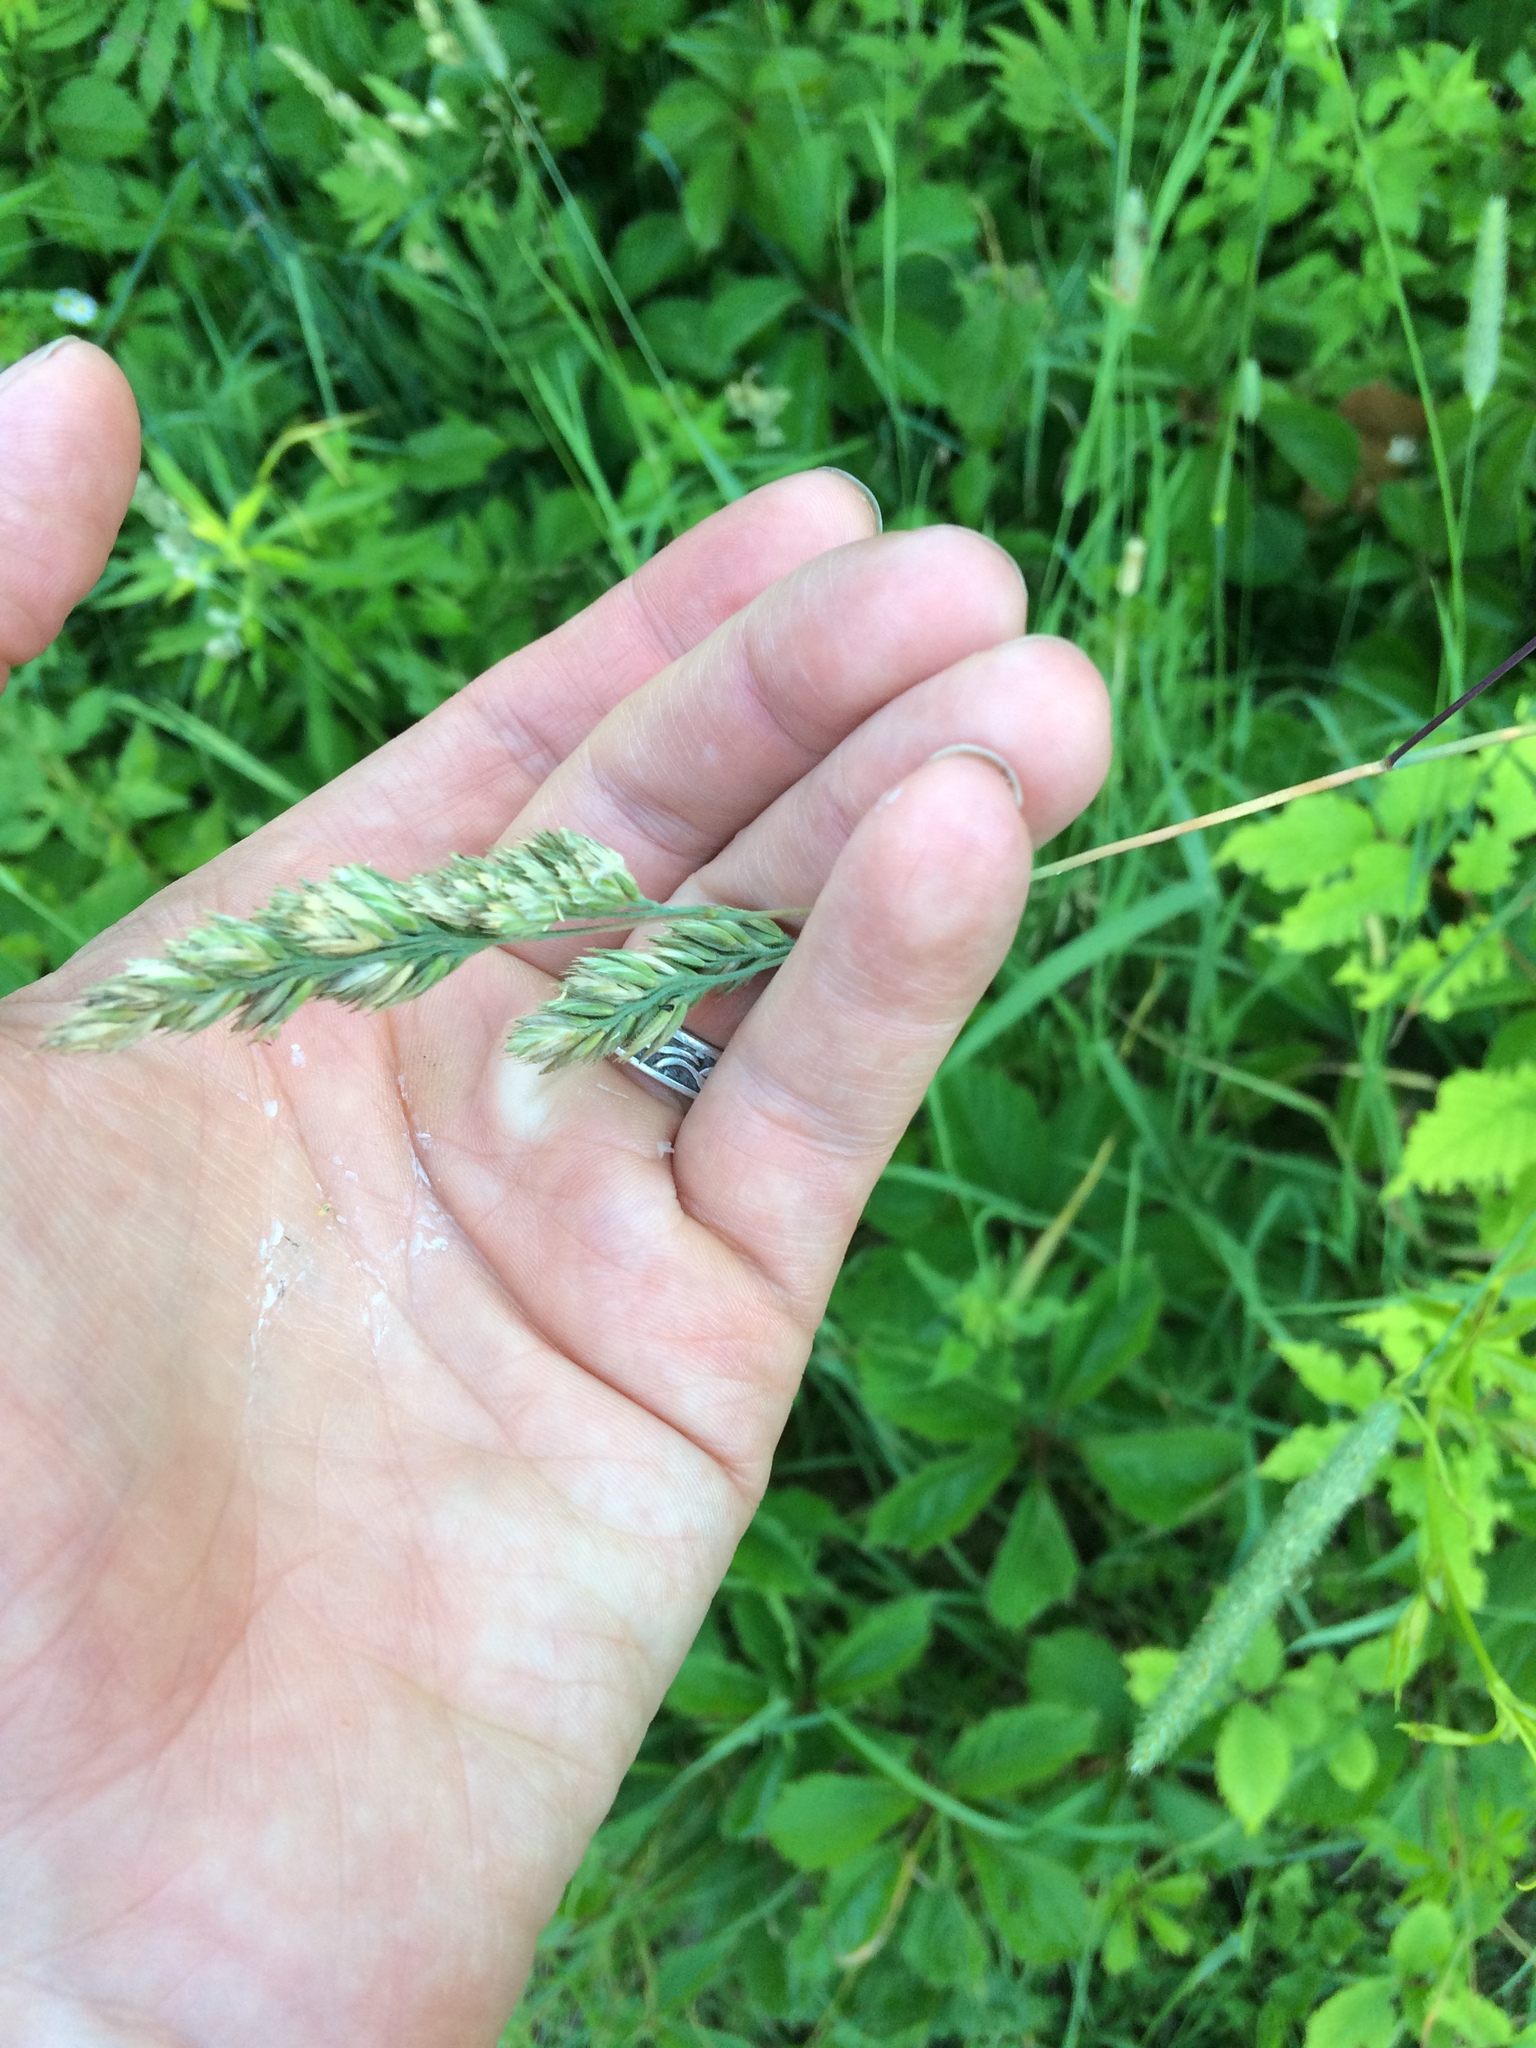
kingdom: Plantae
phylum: Tracheophyta
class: Liliopsida
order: Poales
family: Poaceae
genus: Dactylis
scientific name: Dactylis glomerata
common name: Orchardgrass
